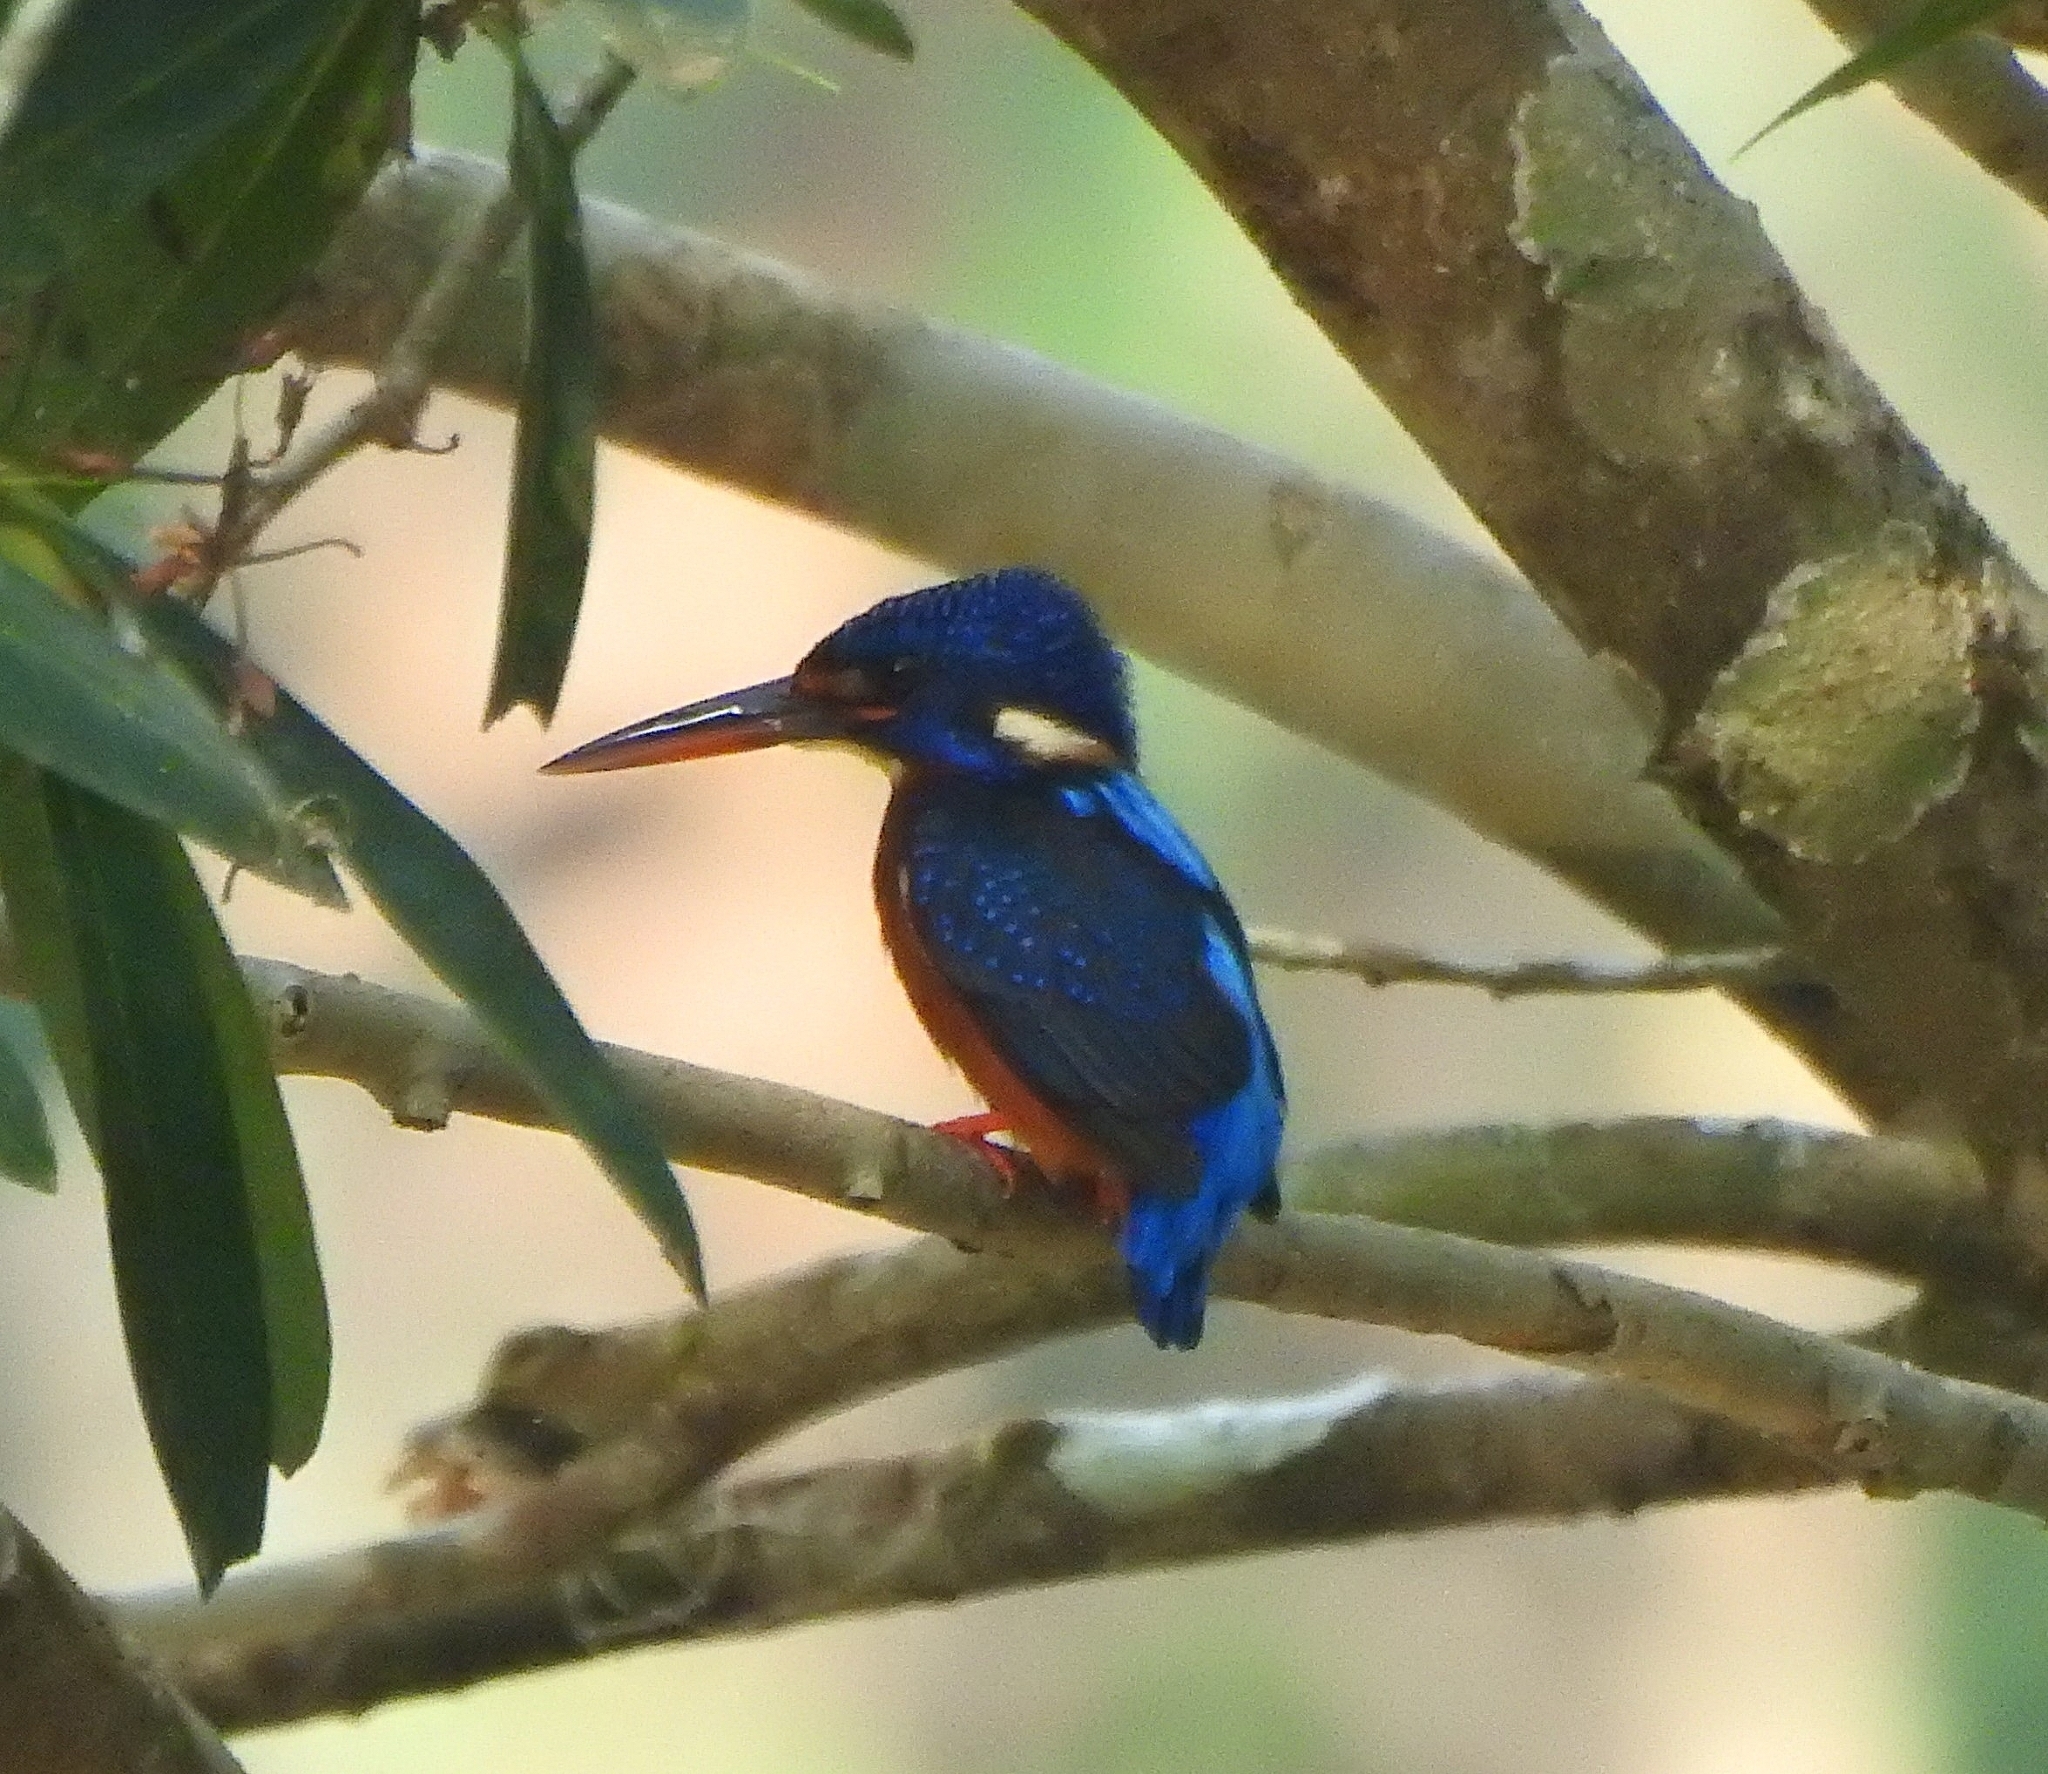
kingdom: Animalia
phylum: Chordata
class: Aves
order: Coraciiformes
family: Alcedinidae
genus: Alcedo
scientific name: Alcedo meninting
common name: Blue-eared kingfisher
